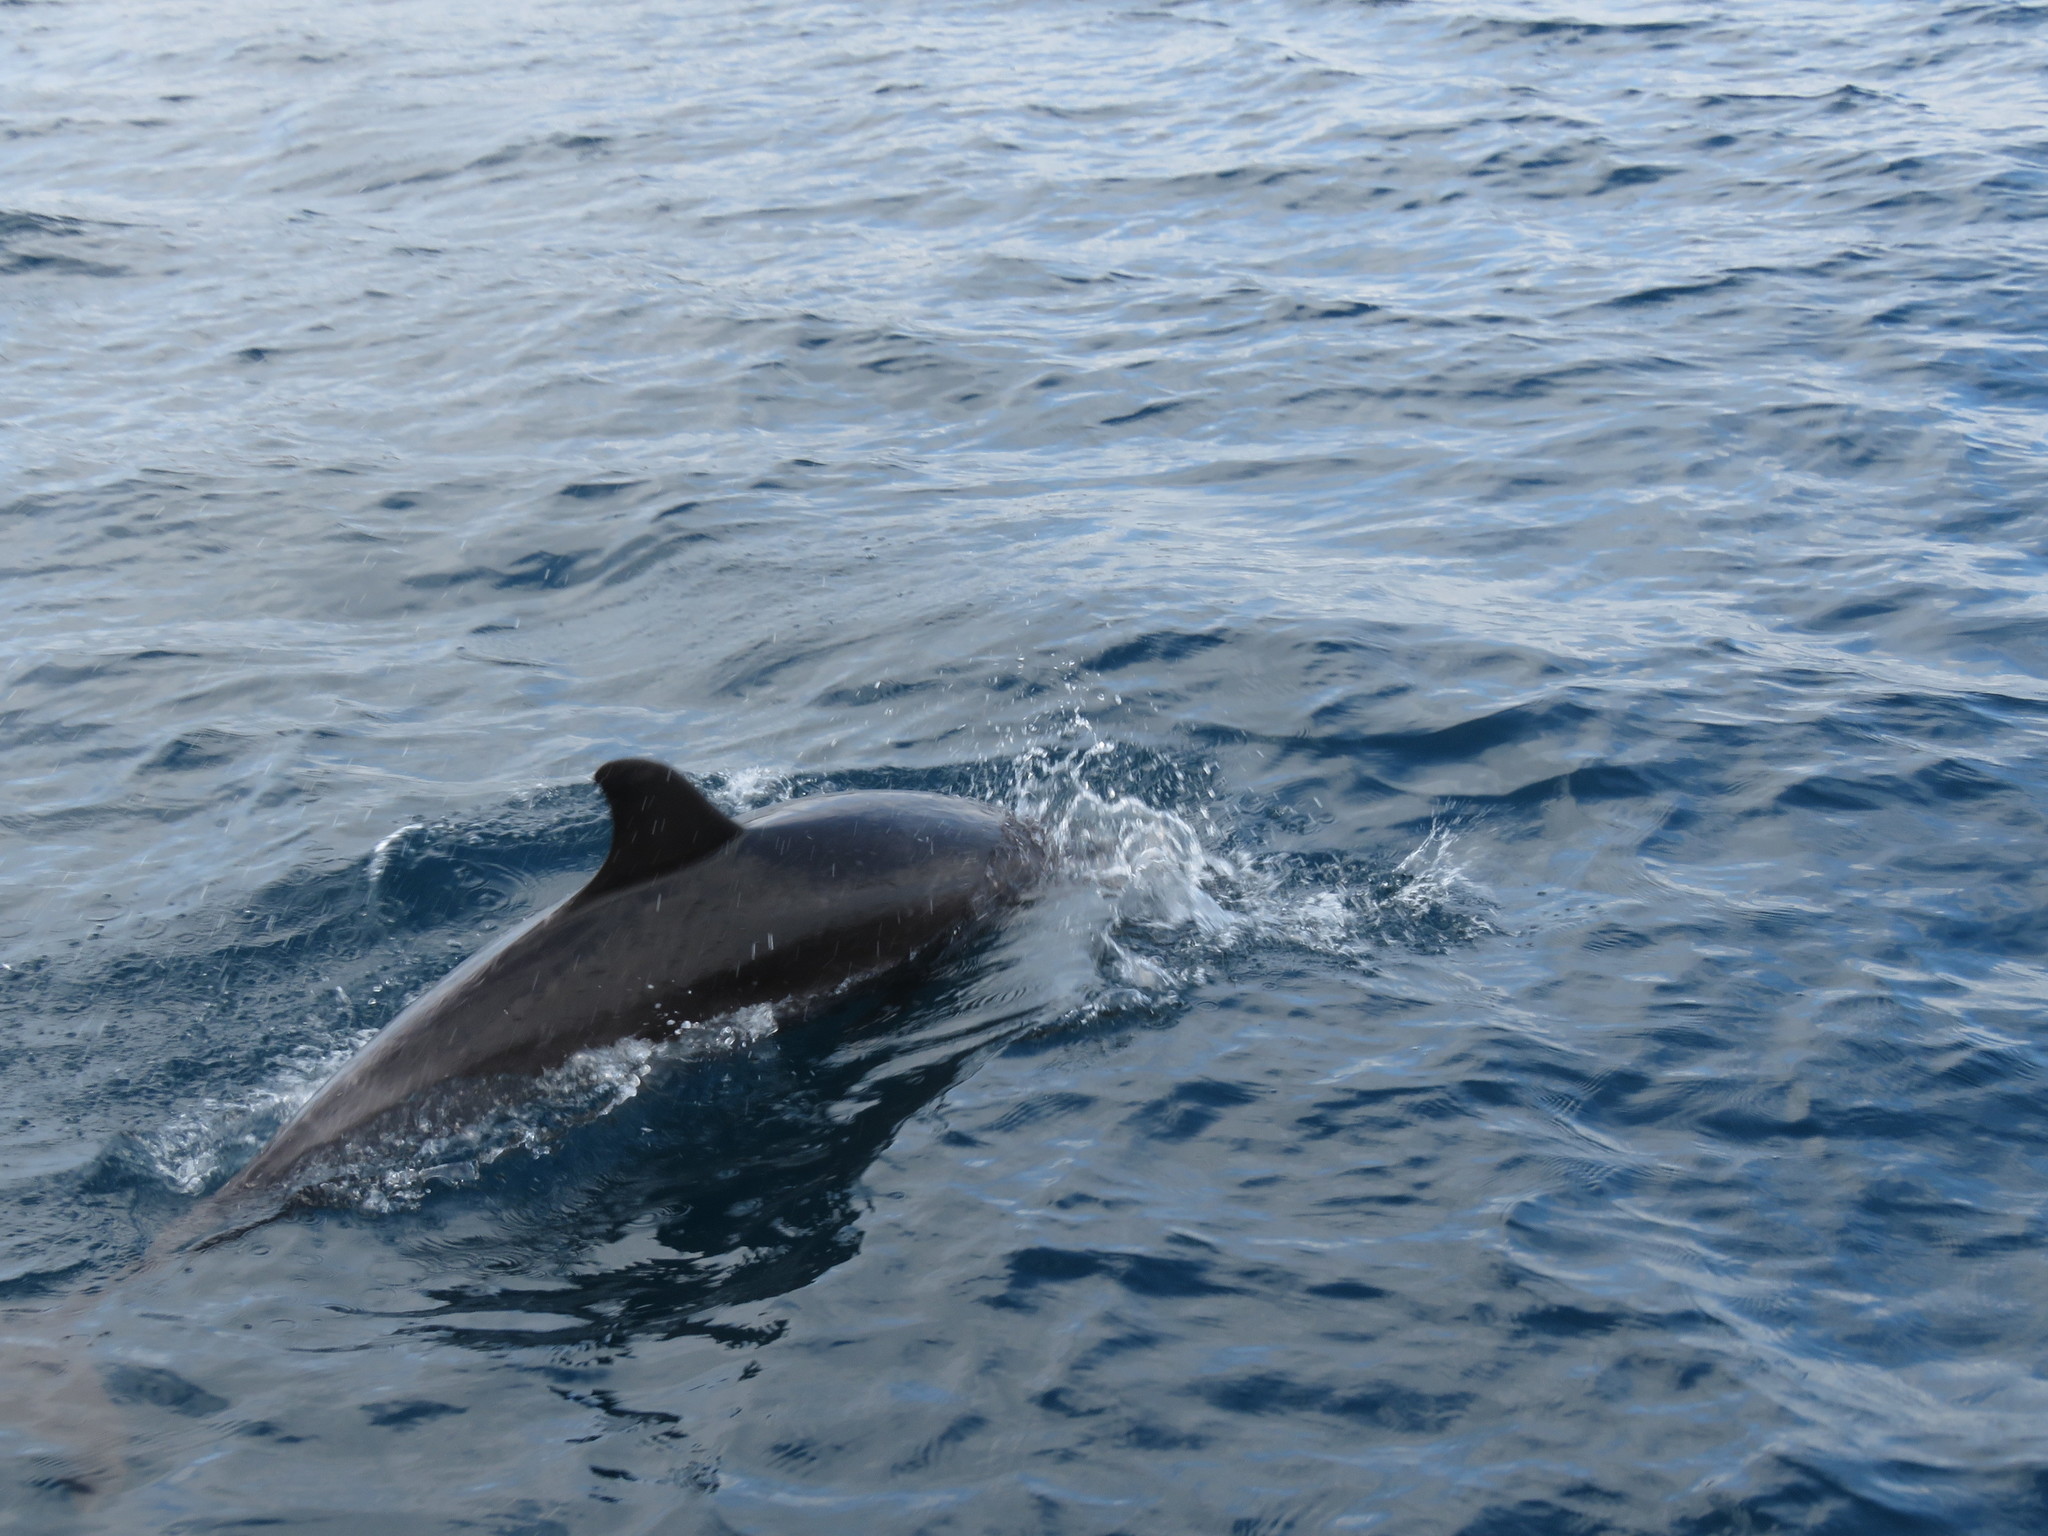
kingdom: Animalia
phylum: Chordata
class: Mammalia
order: Cetacea
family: Delphinidae
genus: Tursiops
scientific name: Tursiops truncatus
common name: Bottlenose dolphin
